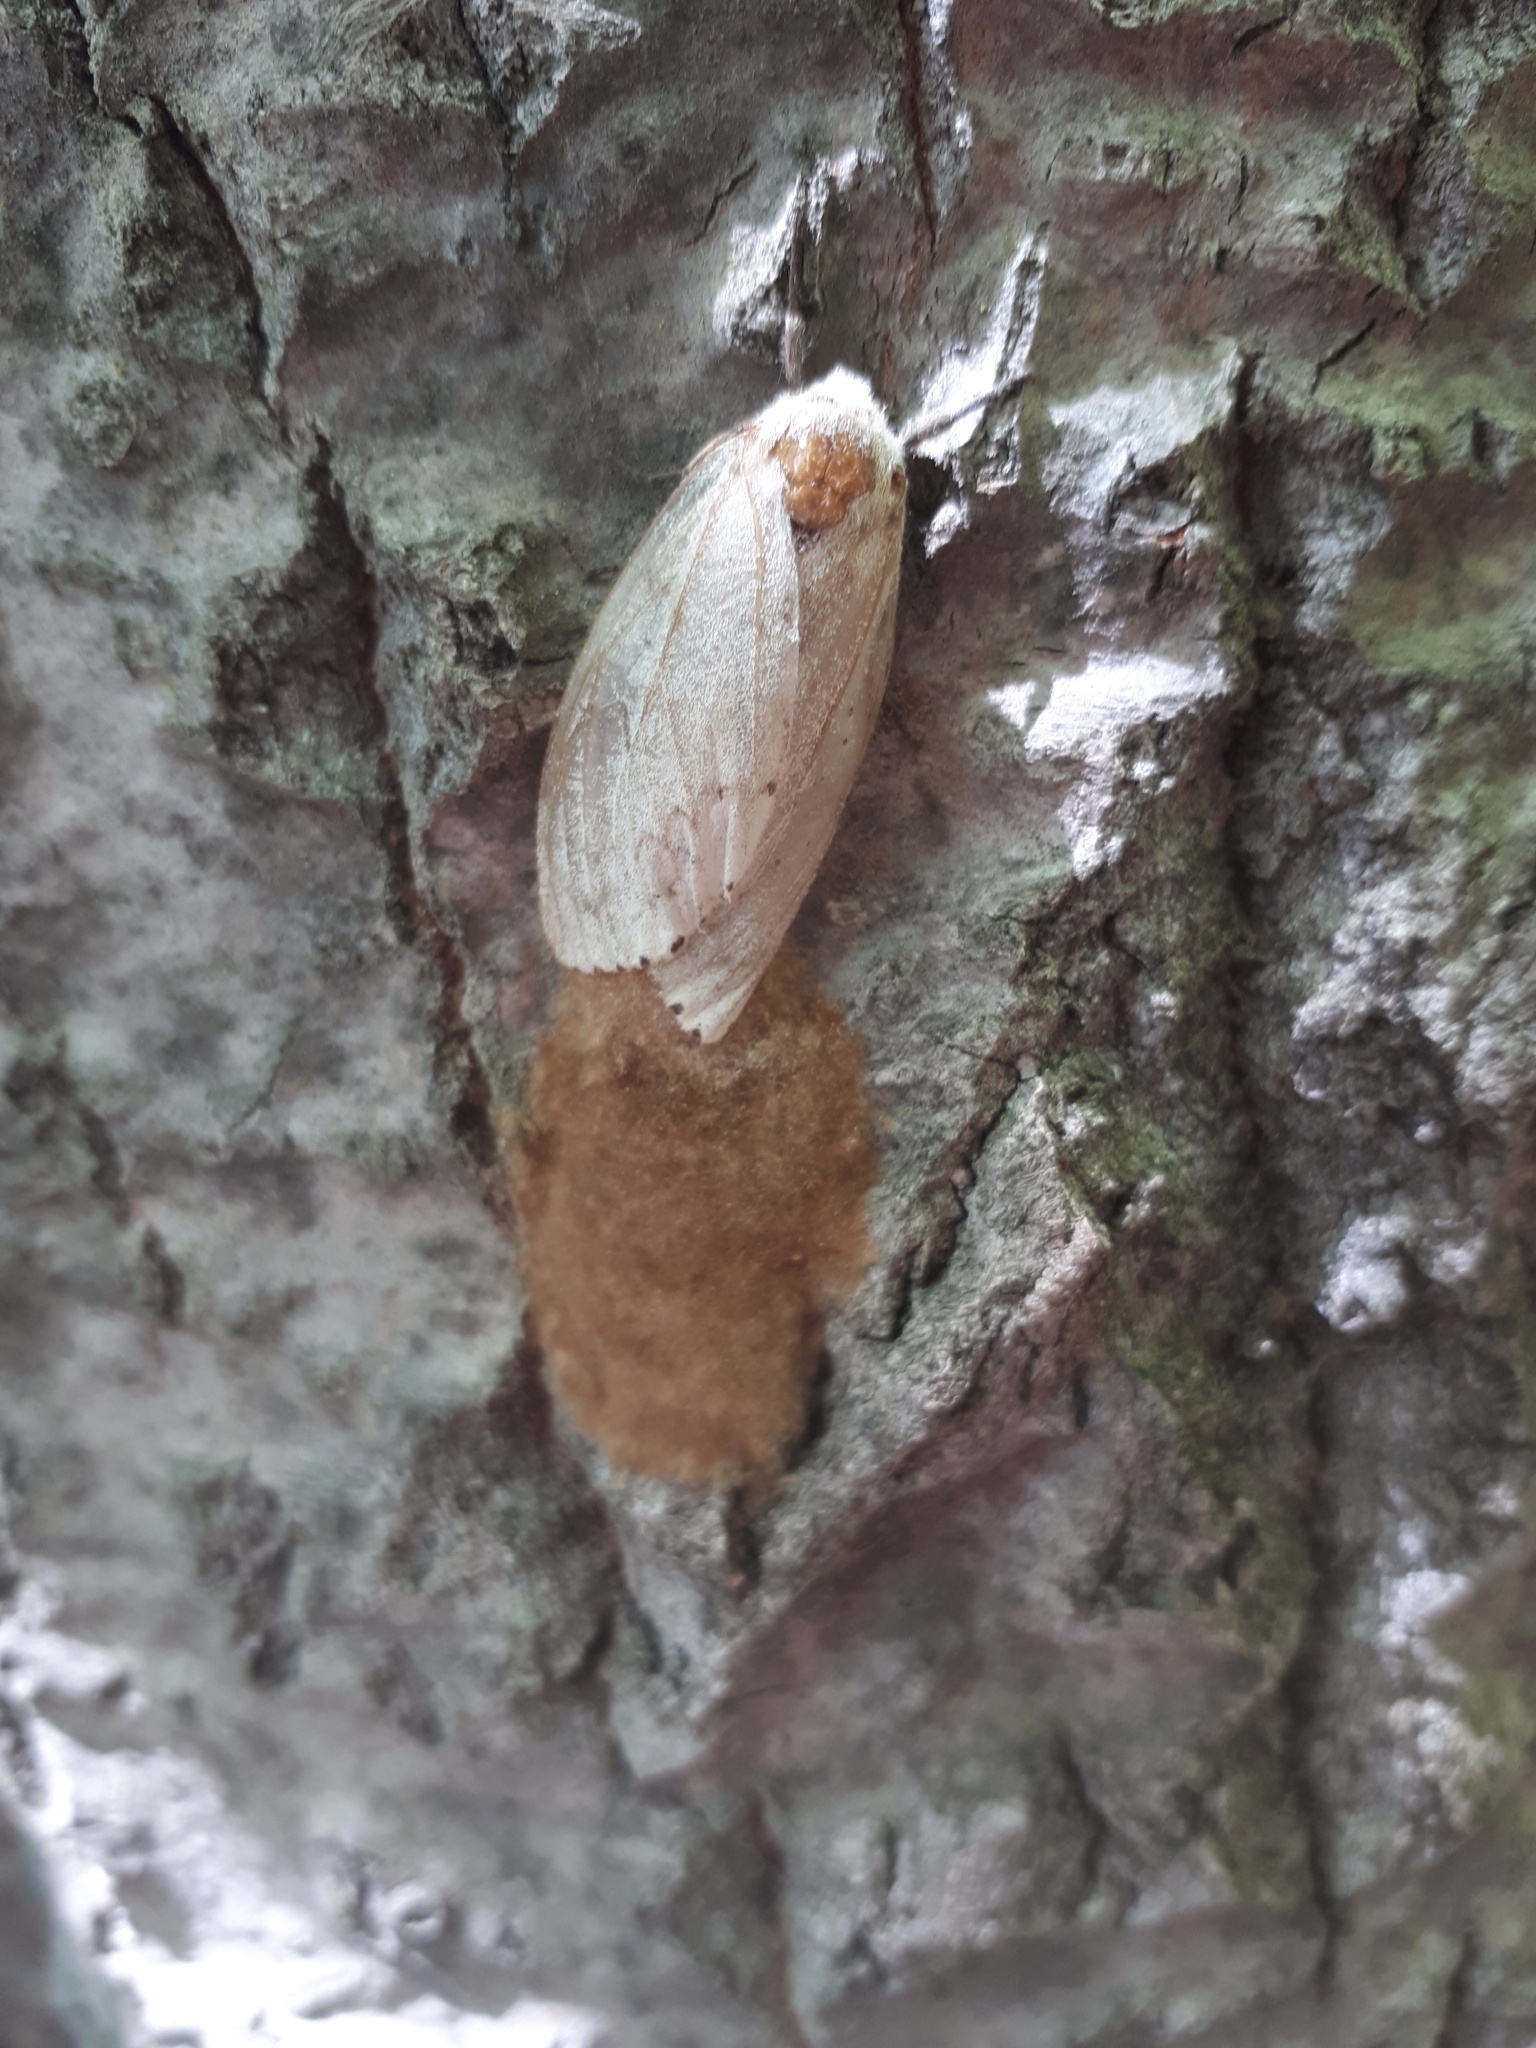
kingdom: Animalia
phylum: Arthropoda
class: Insecta
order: Lepidoptera
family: Erebidae
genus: Lymantria
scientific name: Lymantria dispar
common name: Gypsy moth
